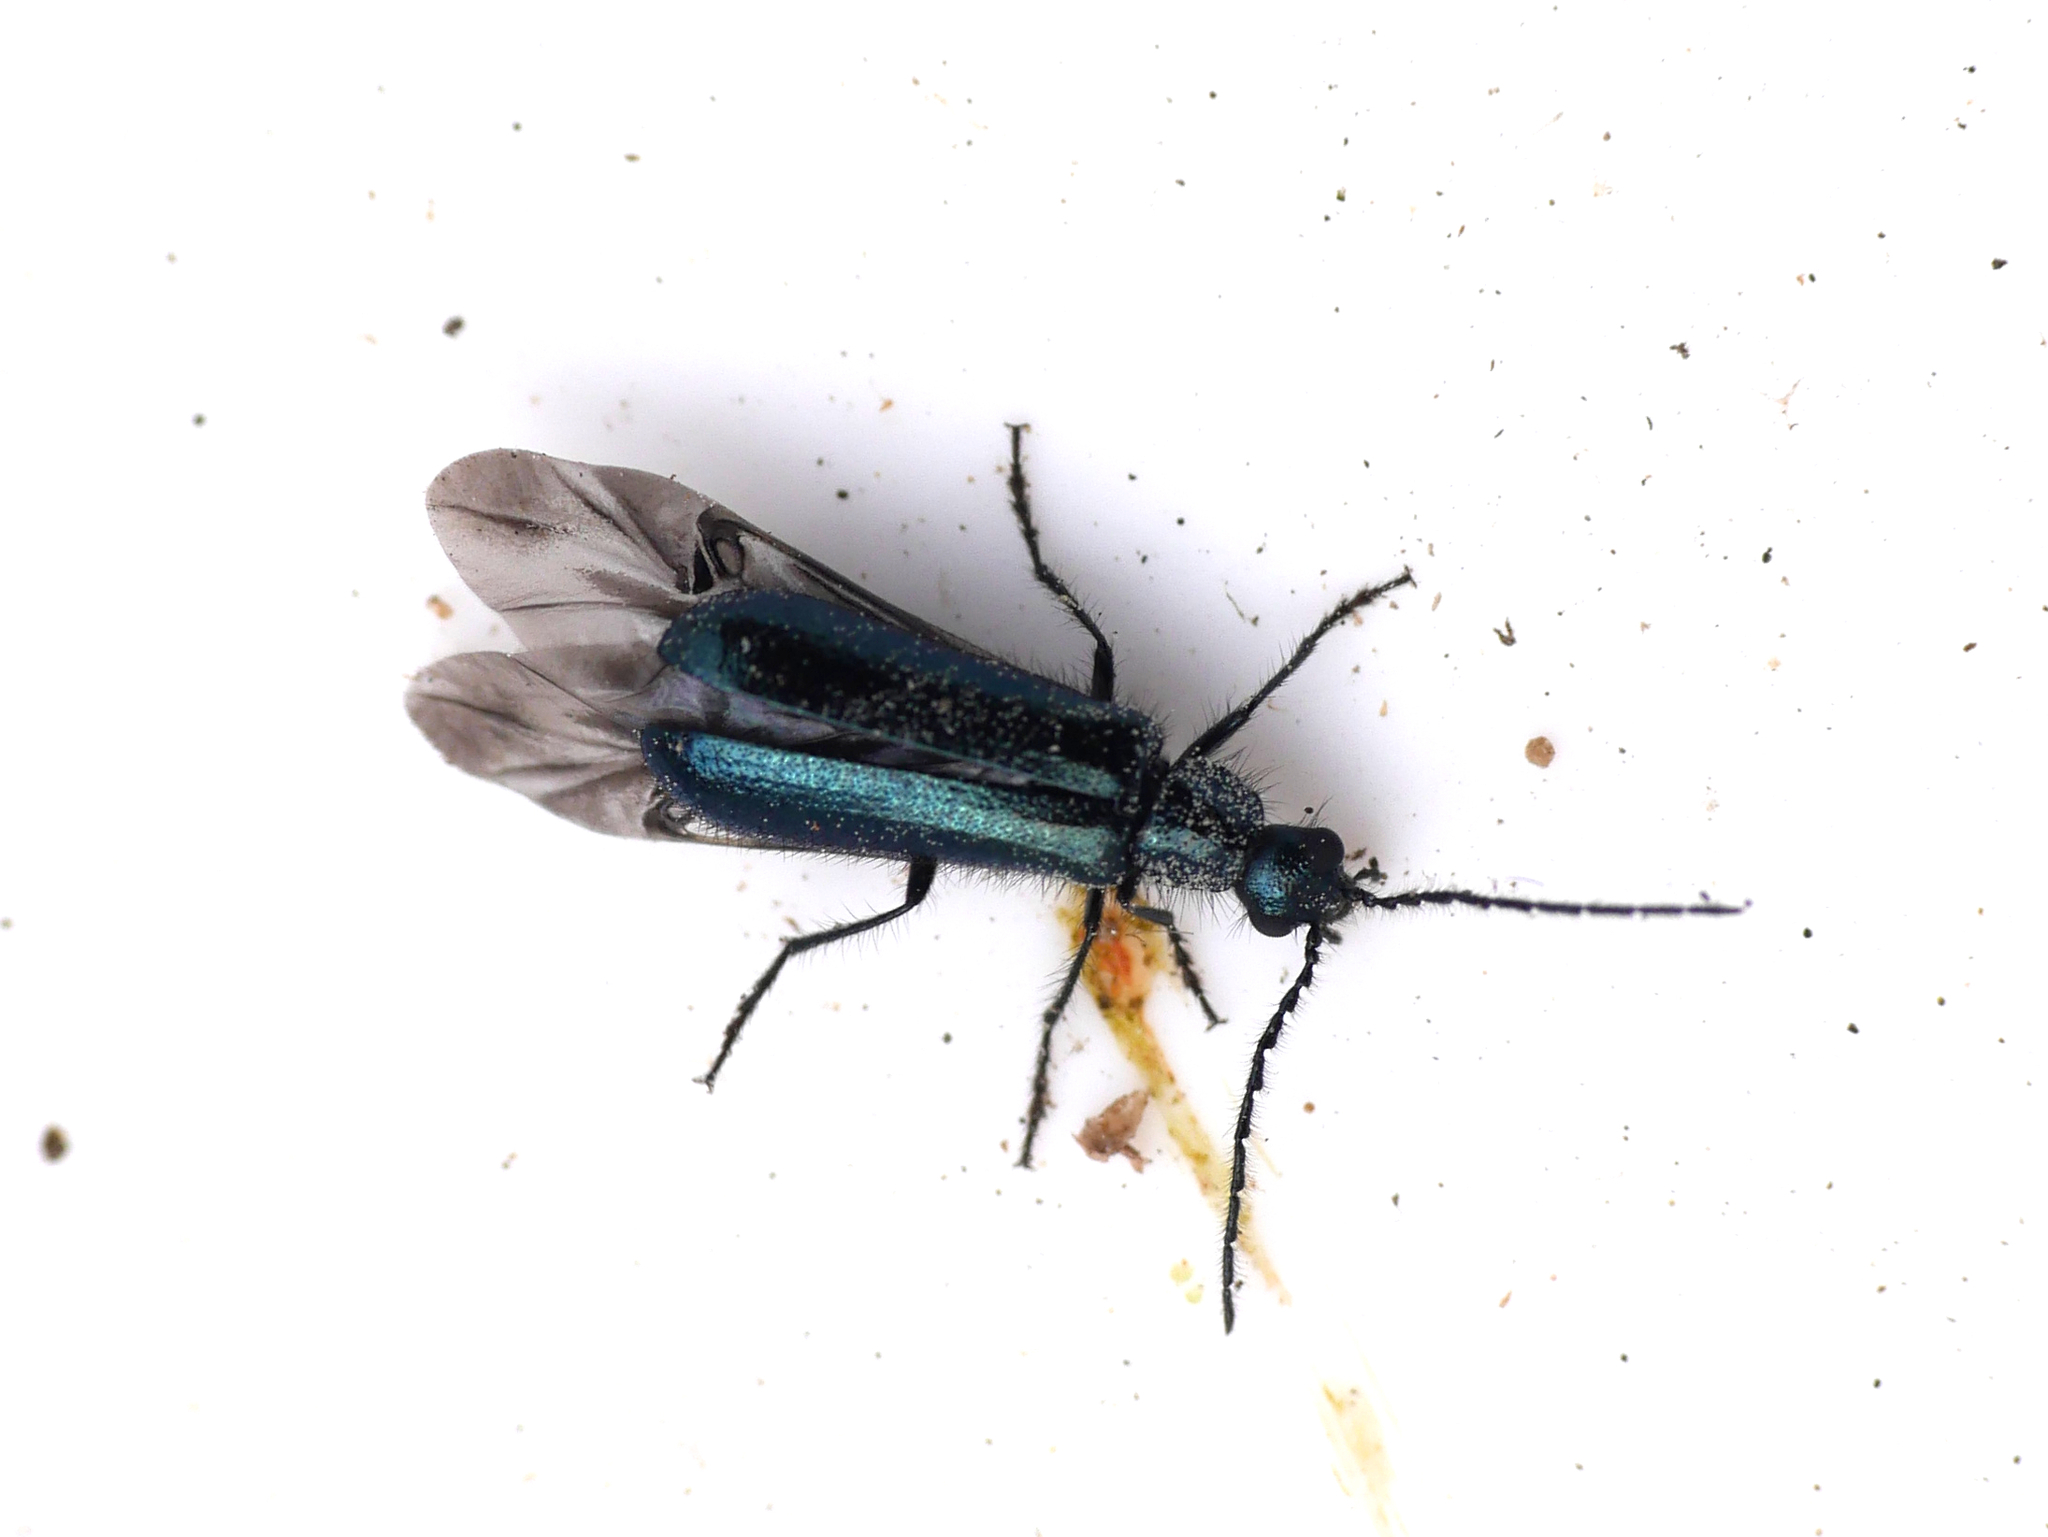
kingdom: Animalia
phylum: Arthropoda
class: Insecta
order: Coleoptera
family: Melyridae
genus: Dasytes
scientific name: Dasytes caeruleus
